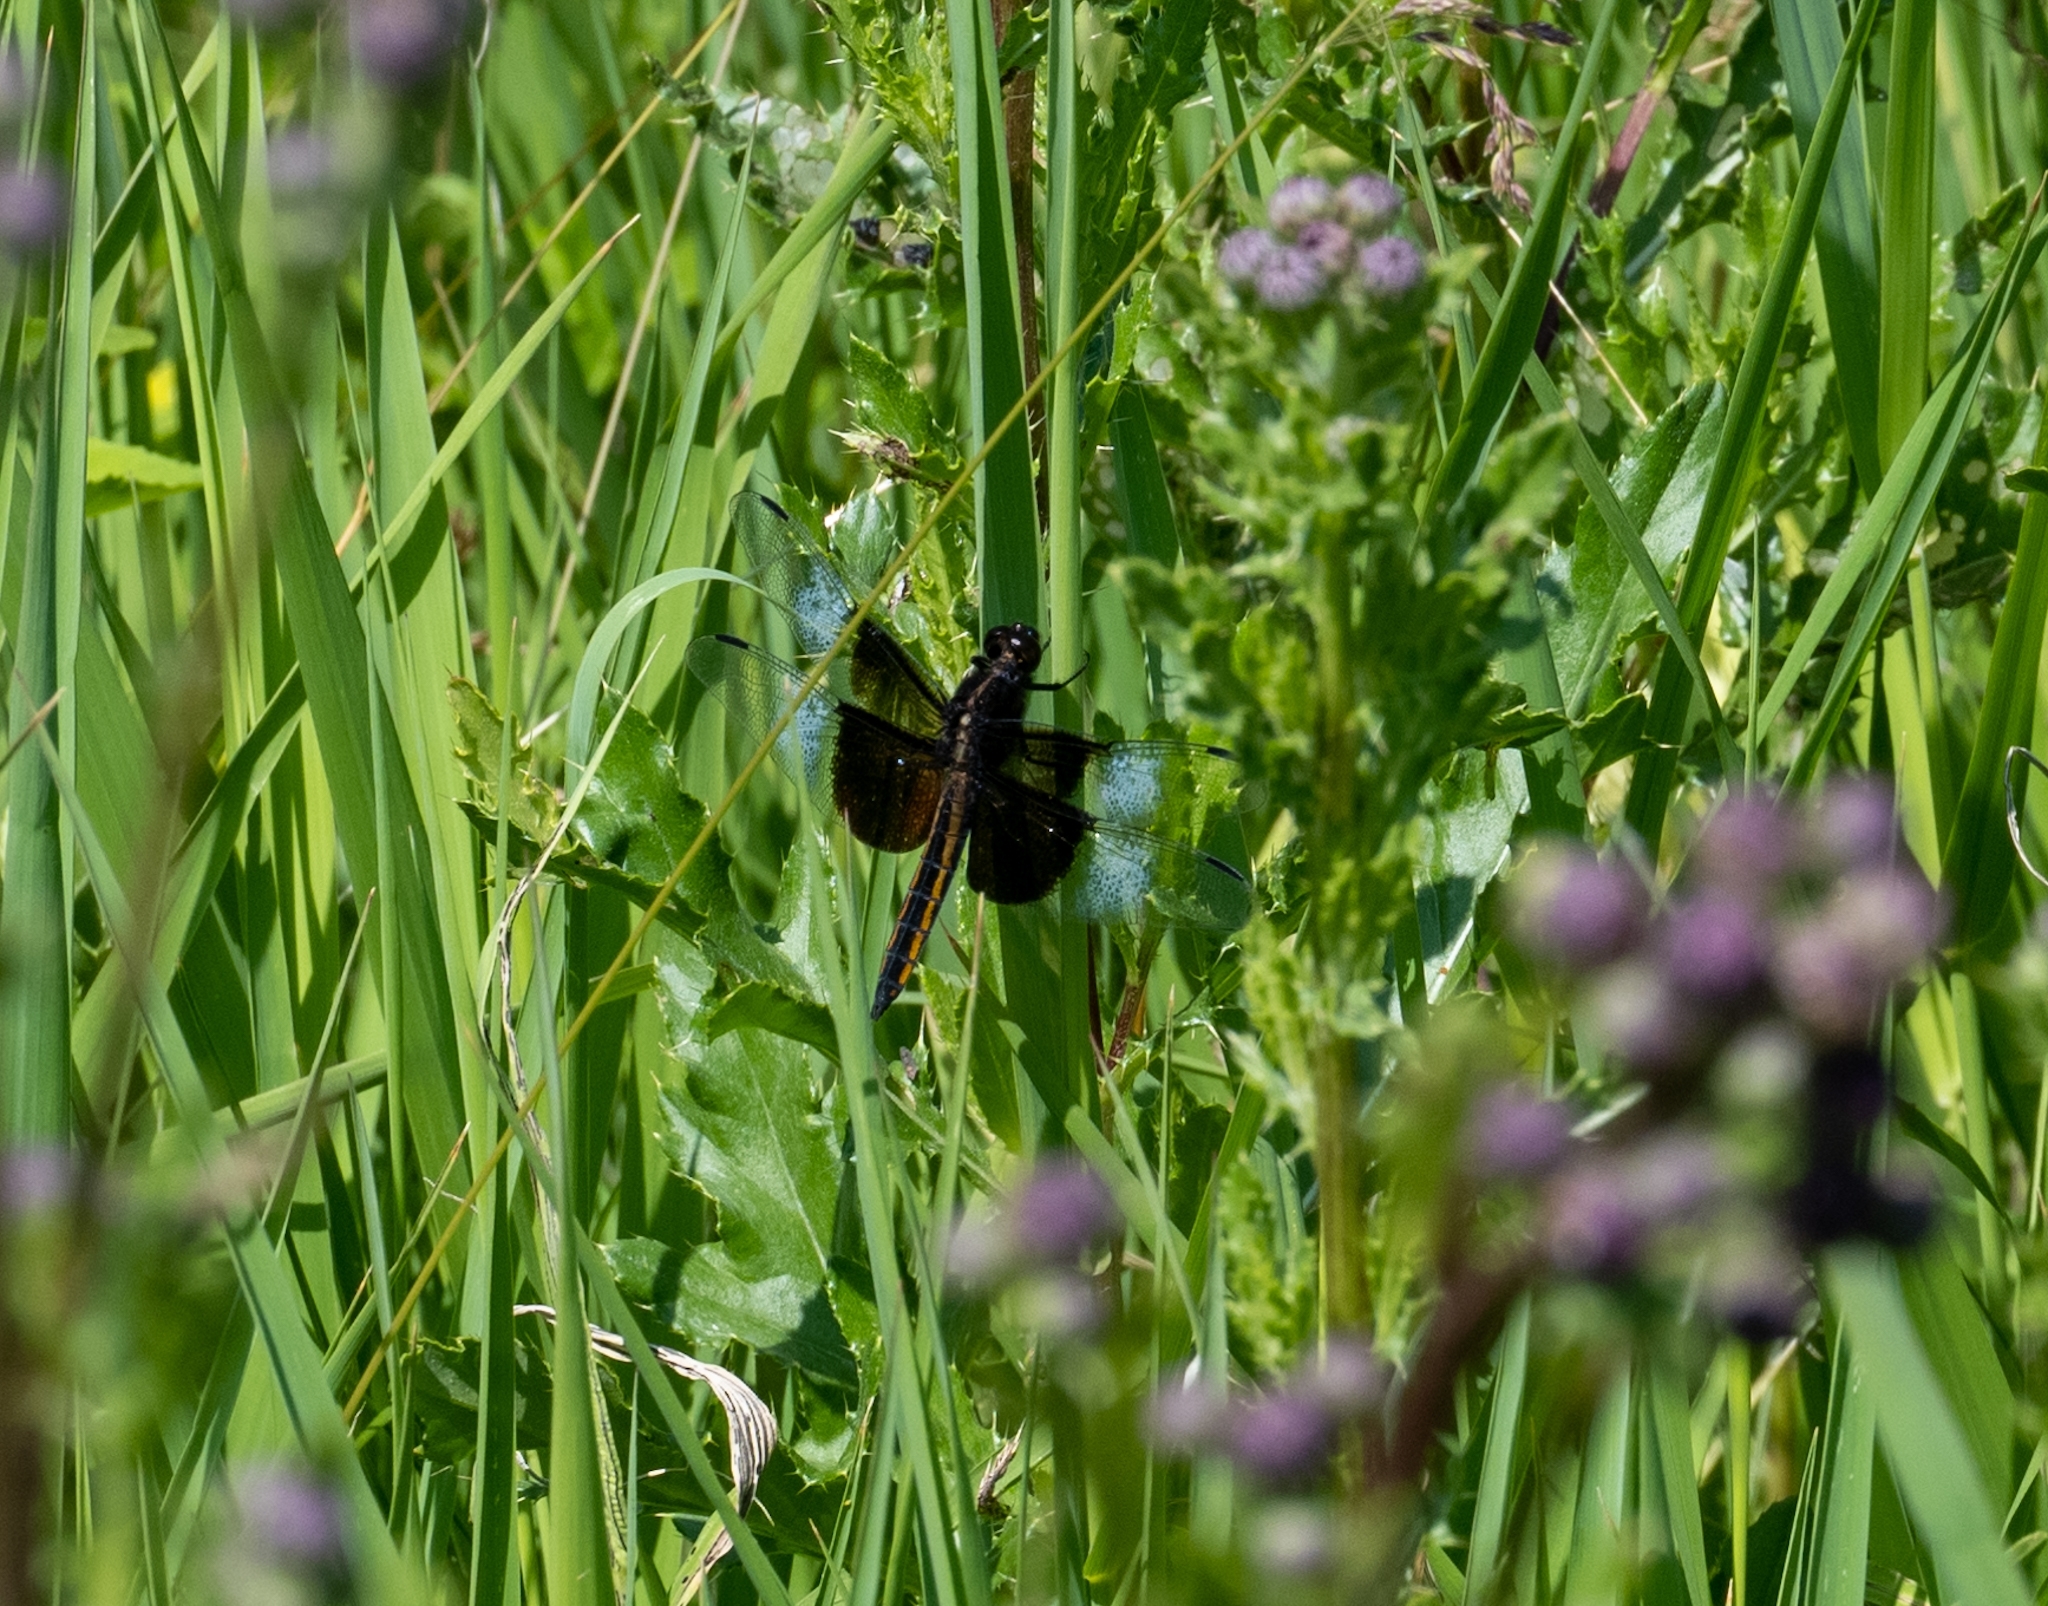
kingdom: Animalia
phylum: Arthropoda
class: Insecta
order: Odonata
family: Libellulidae
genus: Libellula
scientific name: Libellula luctuosa
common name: Widow skimmer
